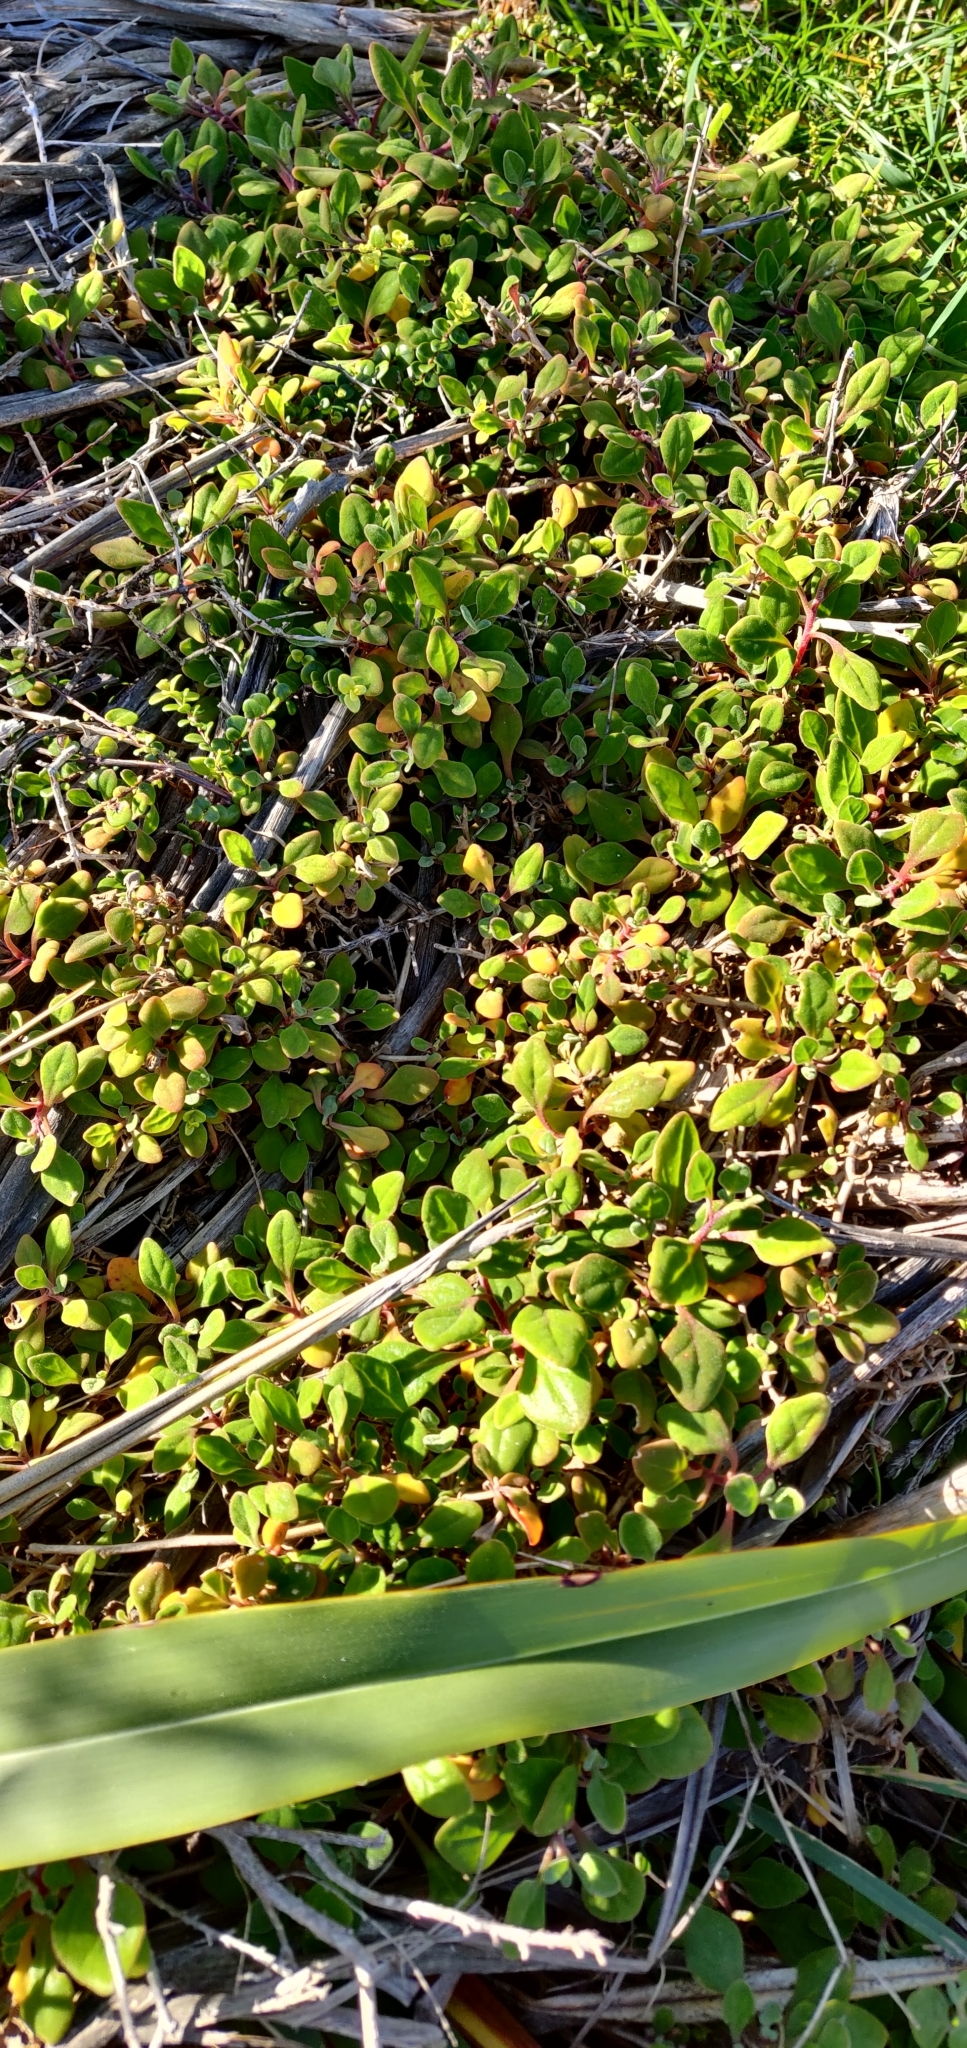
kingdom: Plantae
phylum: Tracheophyta
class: Magnoliopsida
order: Caryophyllales
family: Aizoaceae
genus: Tetragonia
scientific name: Tetragonia implexicoma
